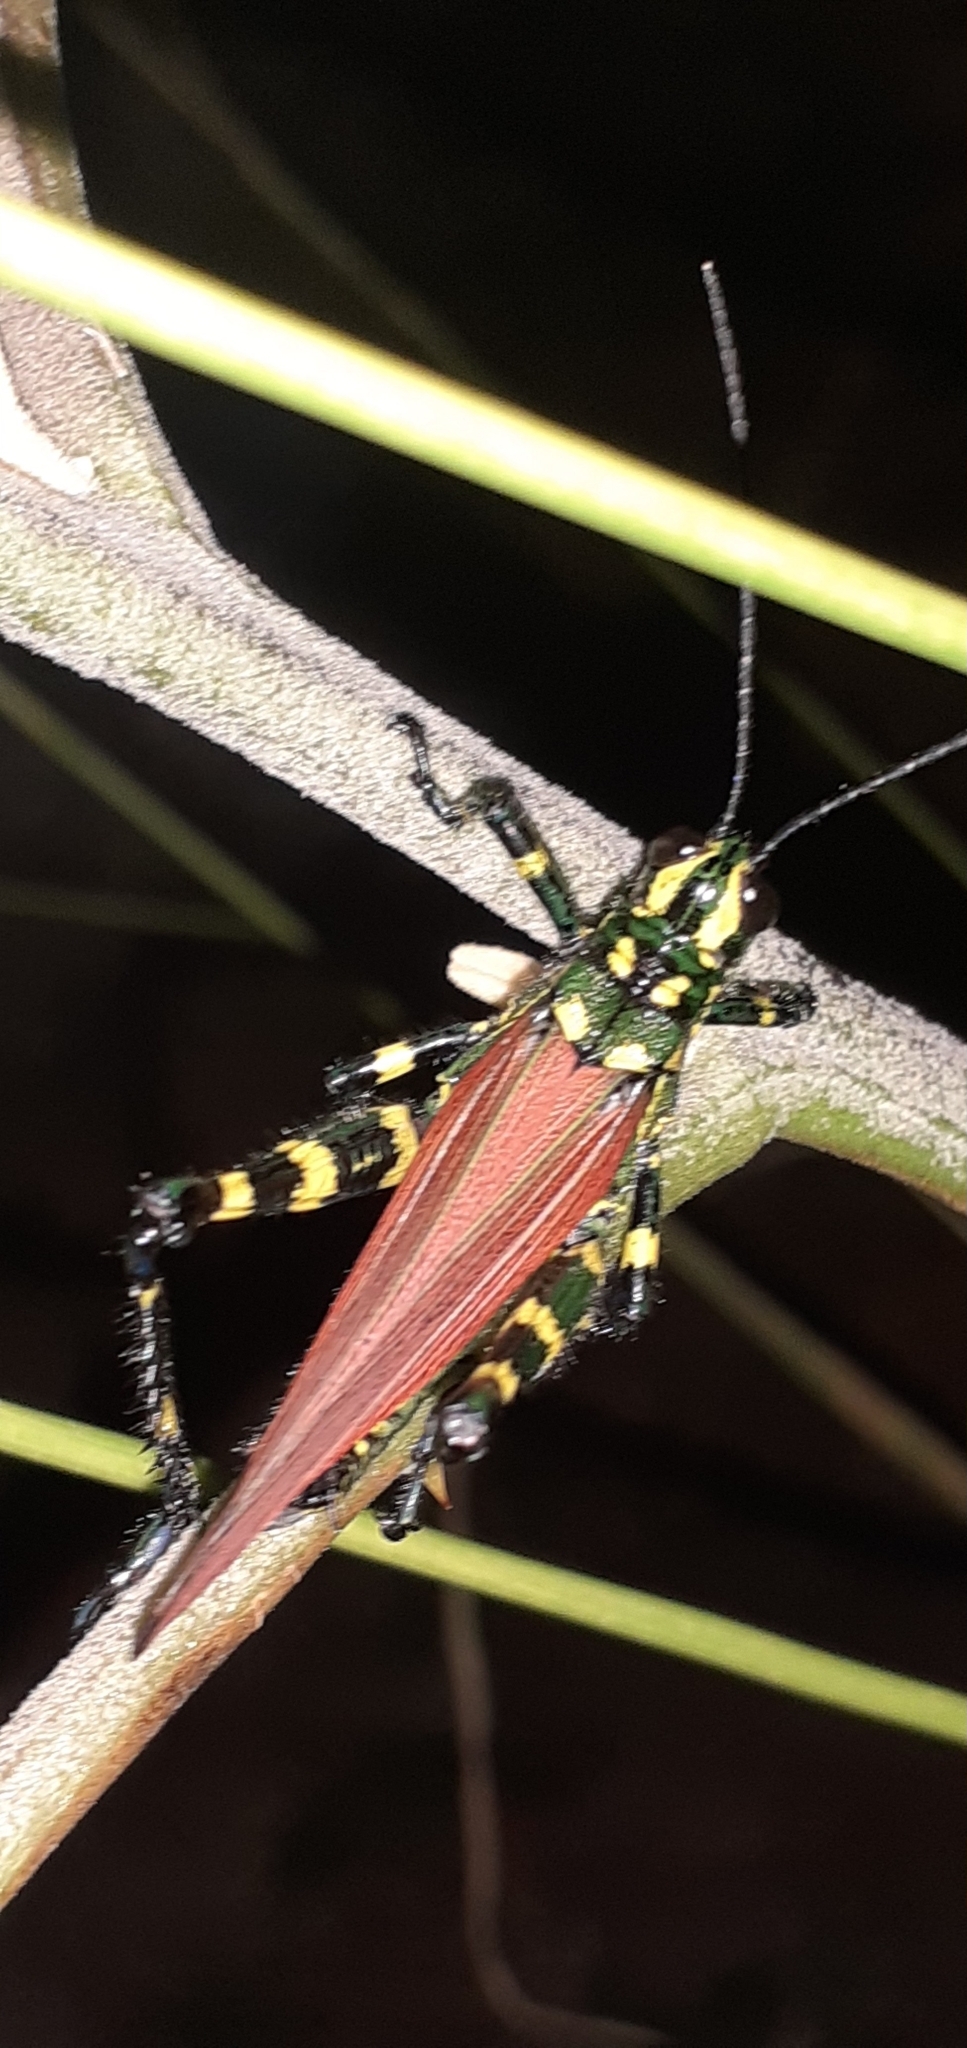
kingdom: Animalia
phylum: Arthropoda
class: Insecta
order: Orthoptera
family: Romaleidae
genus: Chromacris
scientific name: Chromacris speciosa
